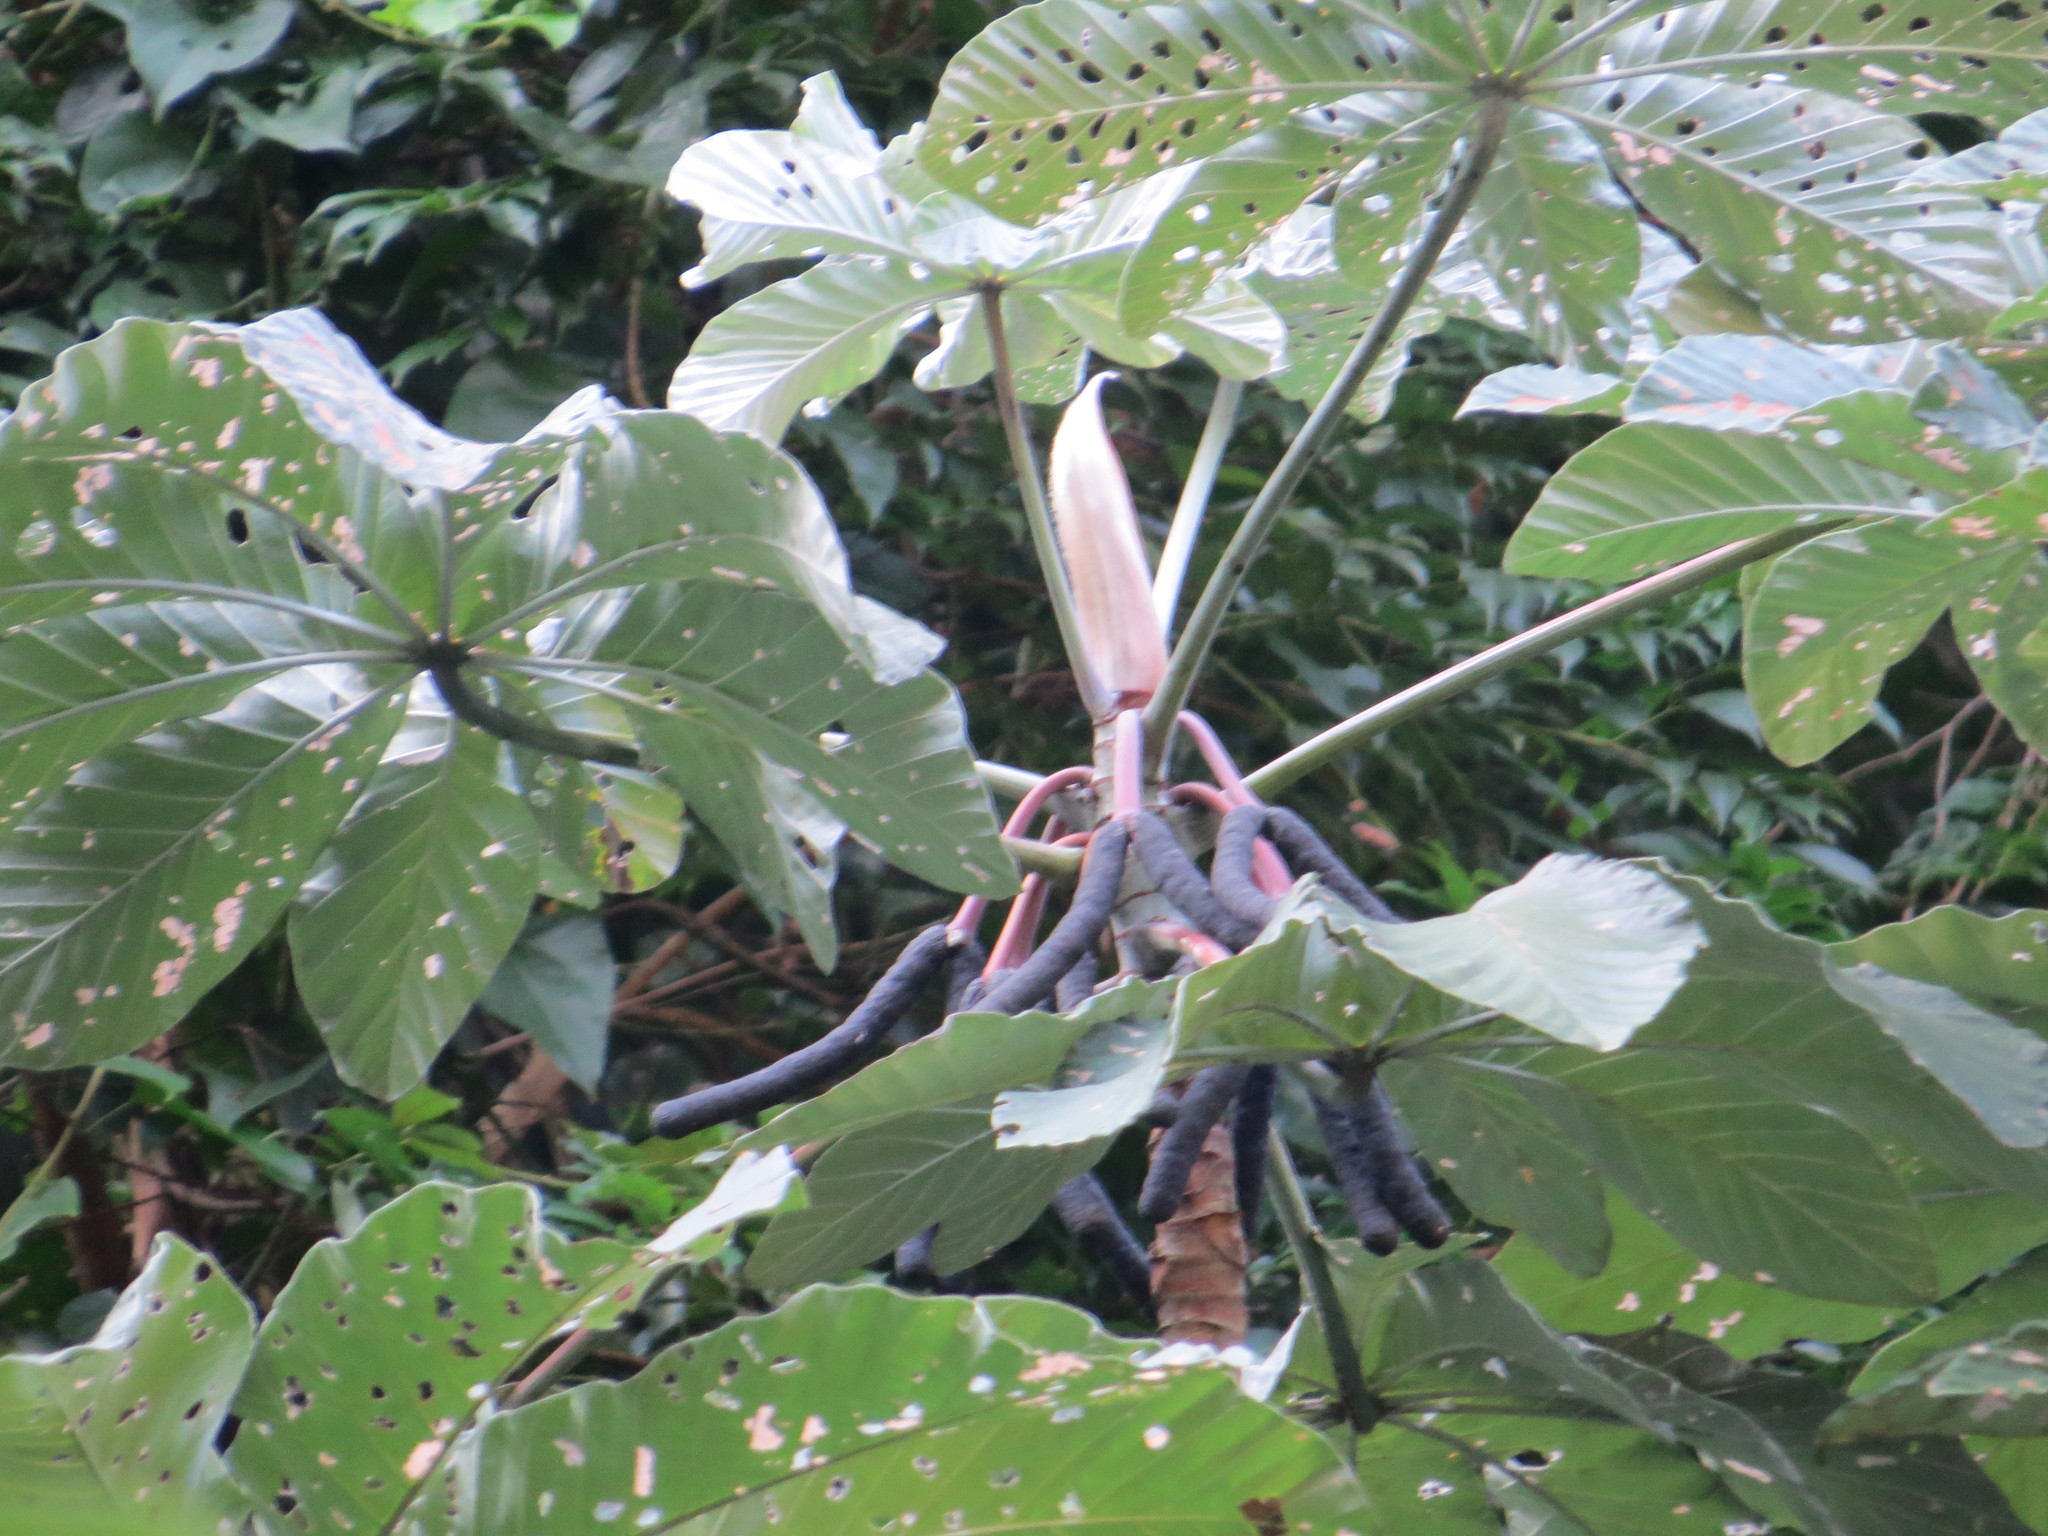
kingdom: Plantae
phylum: Tracheophyta
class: Magnoliopsida
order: Rosales
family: Urticaceae
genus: Cecropia
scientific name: Cecropia hololeuca
